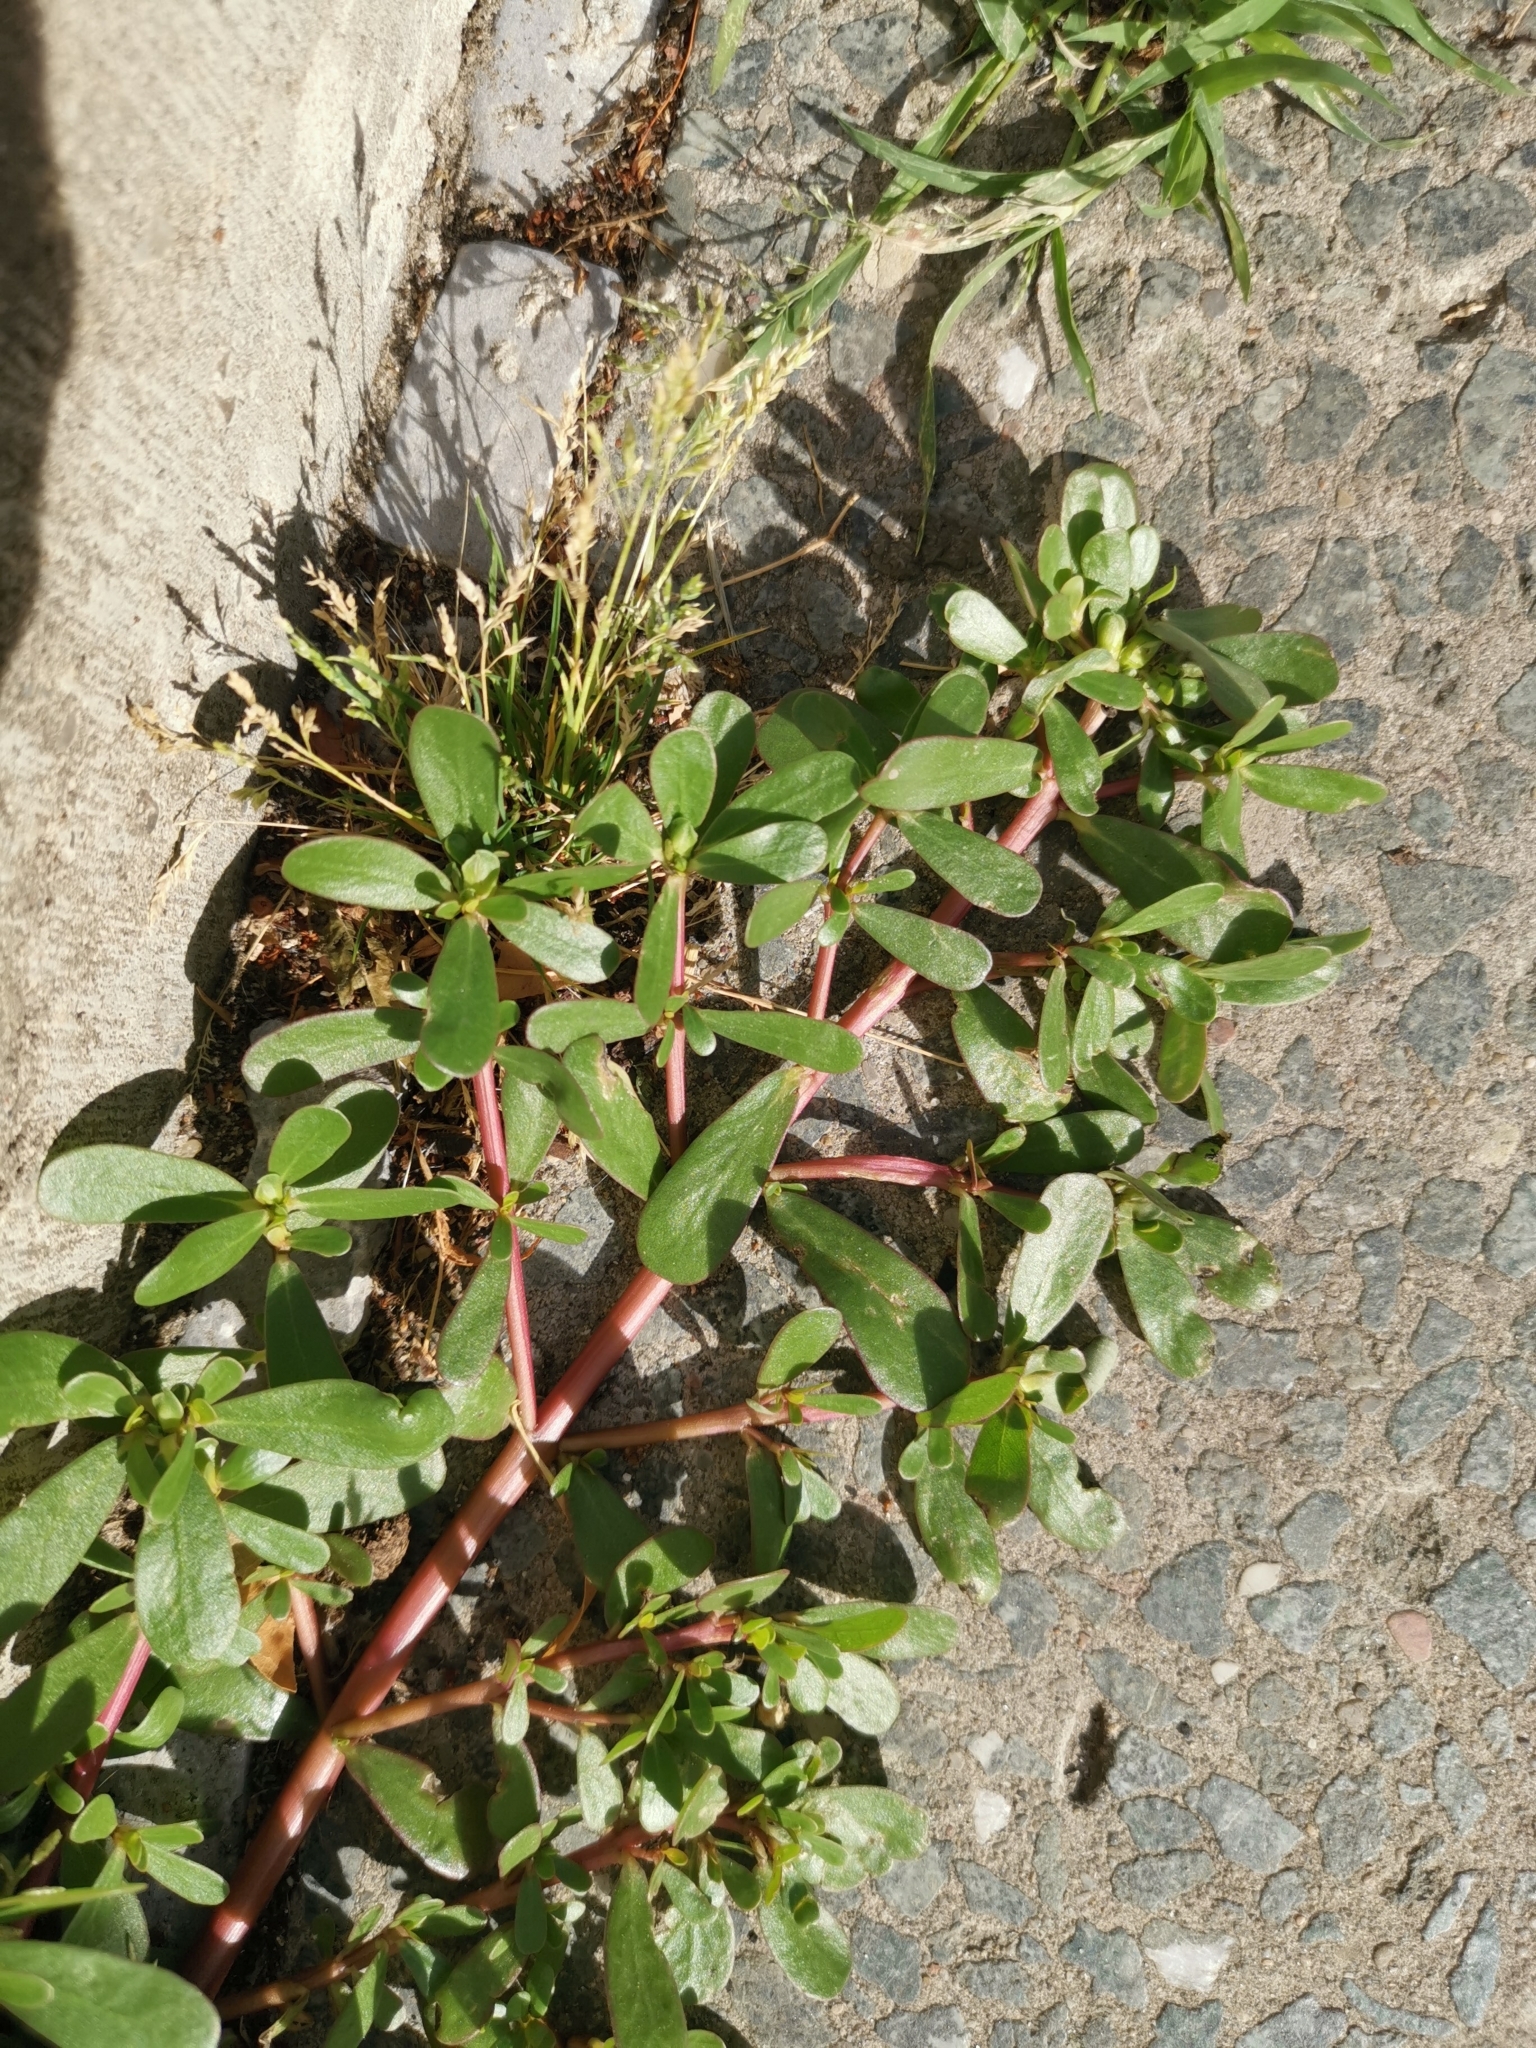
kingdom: Plantae
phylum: Tracheophyta
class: Magnoliopsida
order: Caryophyllales
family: Portulacaceae
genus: Portulaca
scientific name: Portulaca oleracea
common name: Common purslane
